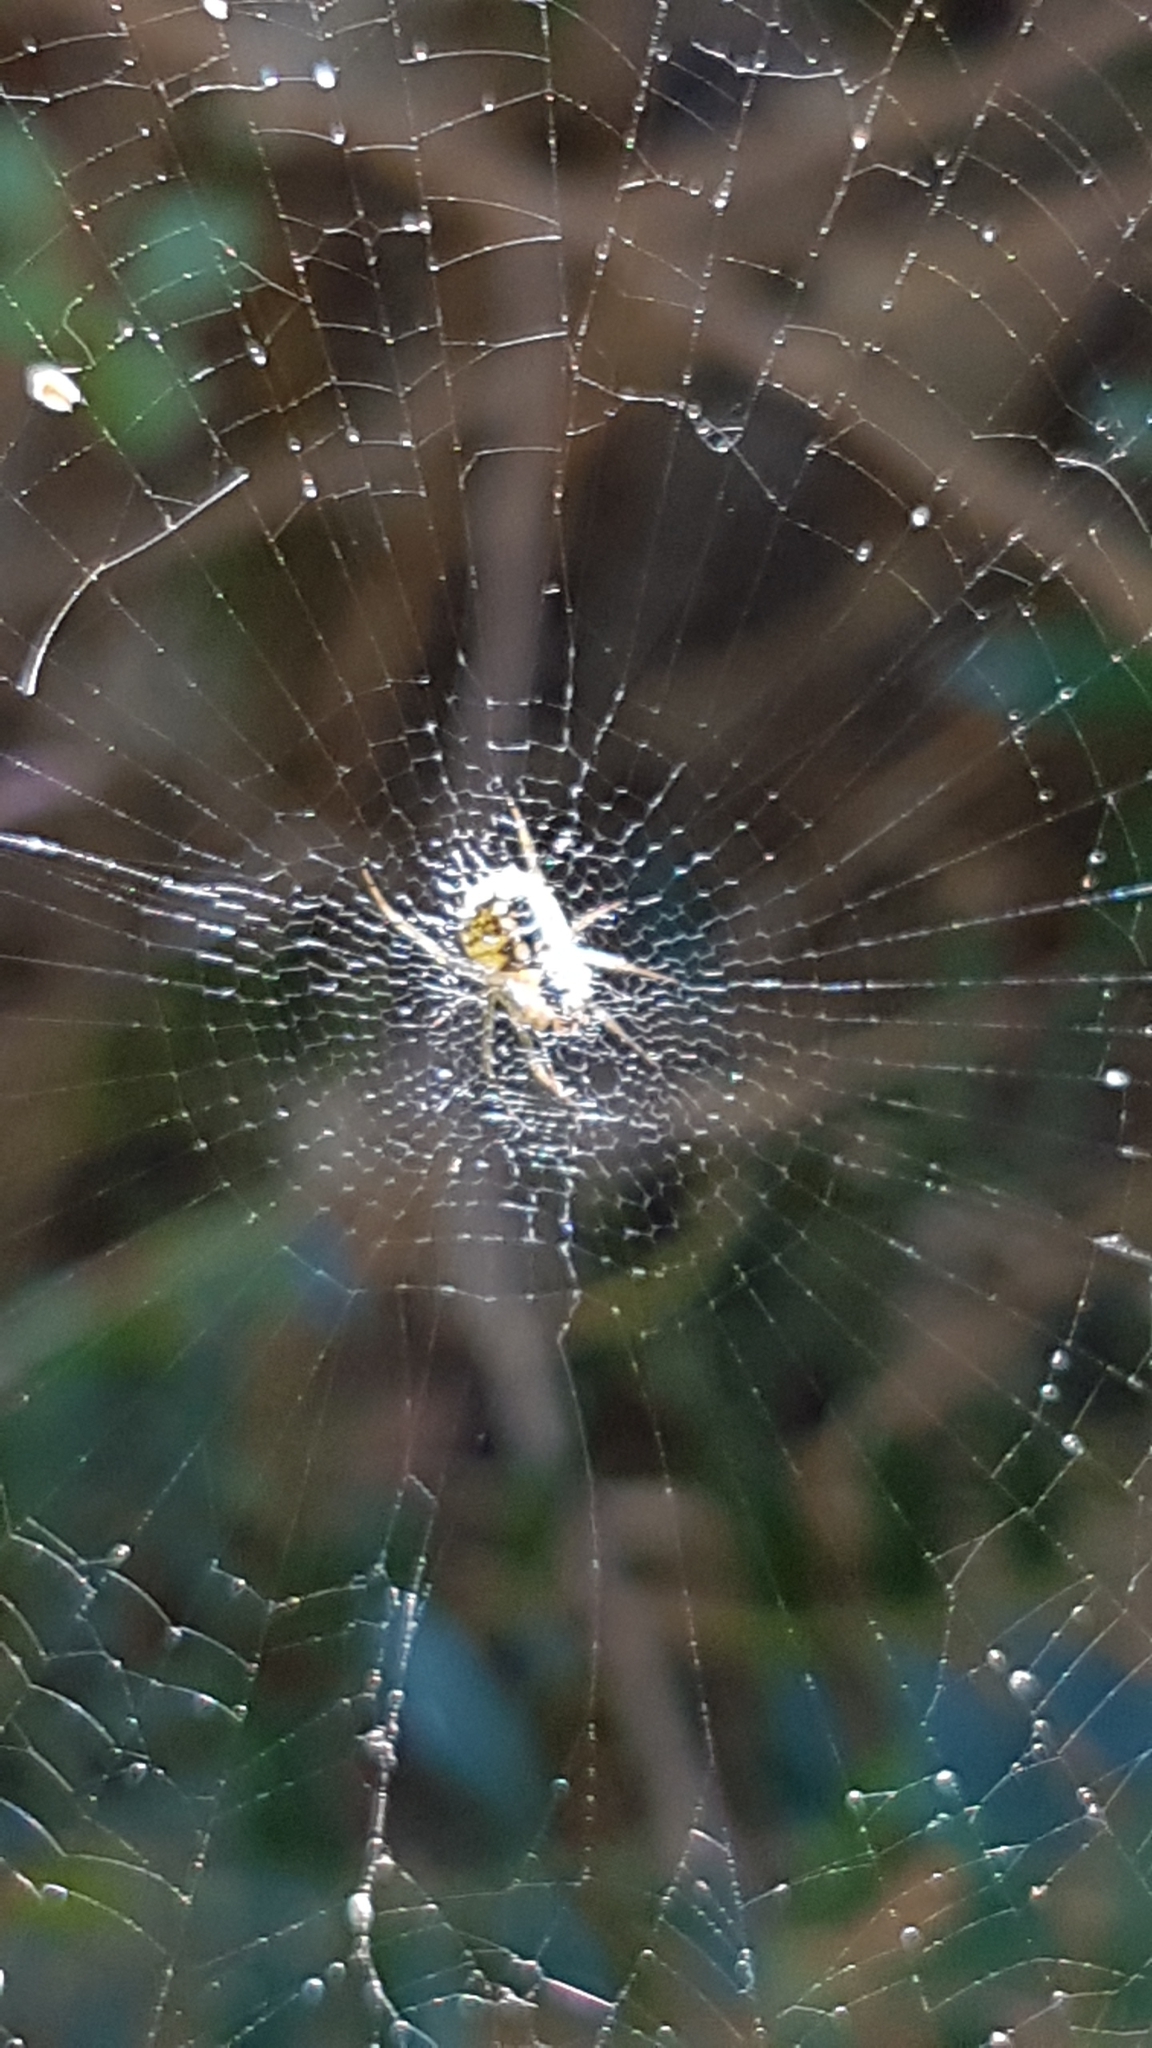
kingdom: Animalia
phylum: Arthropoda
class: Arachnida
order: Araneae
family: Araneidae
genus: Mangora
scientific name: Mangora acalypha
